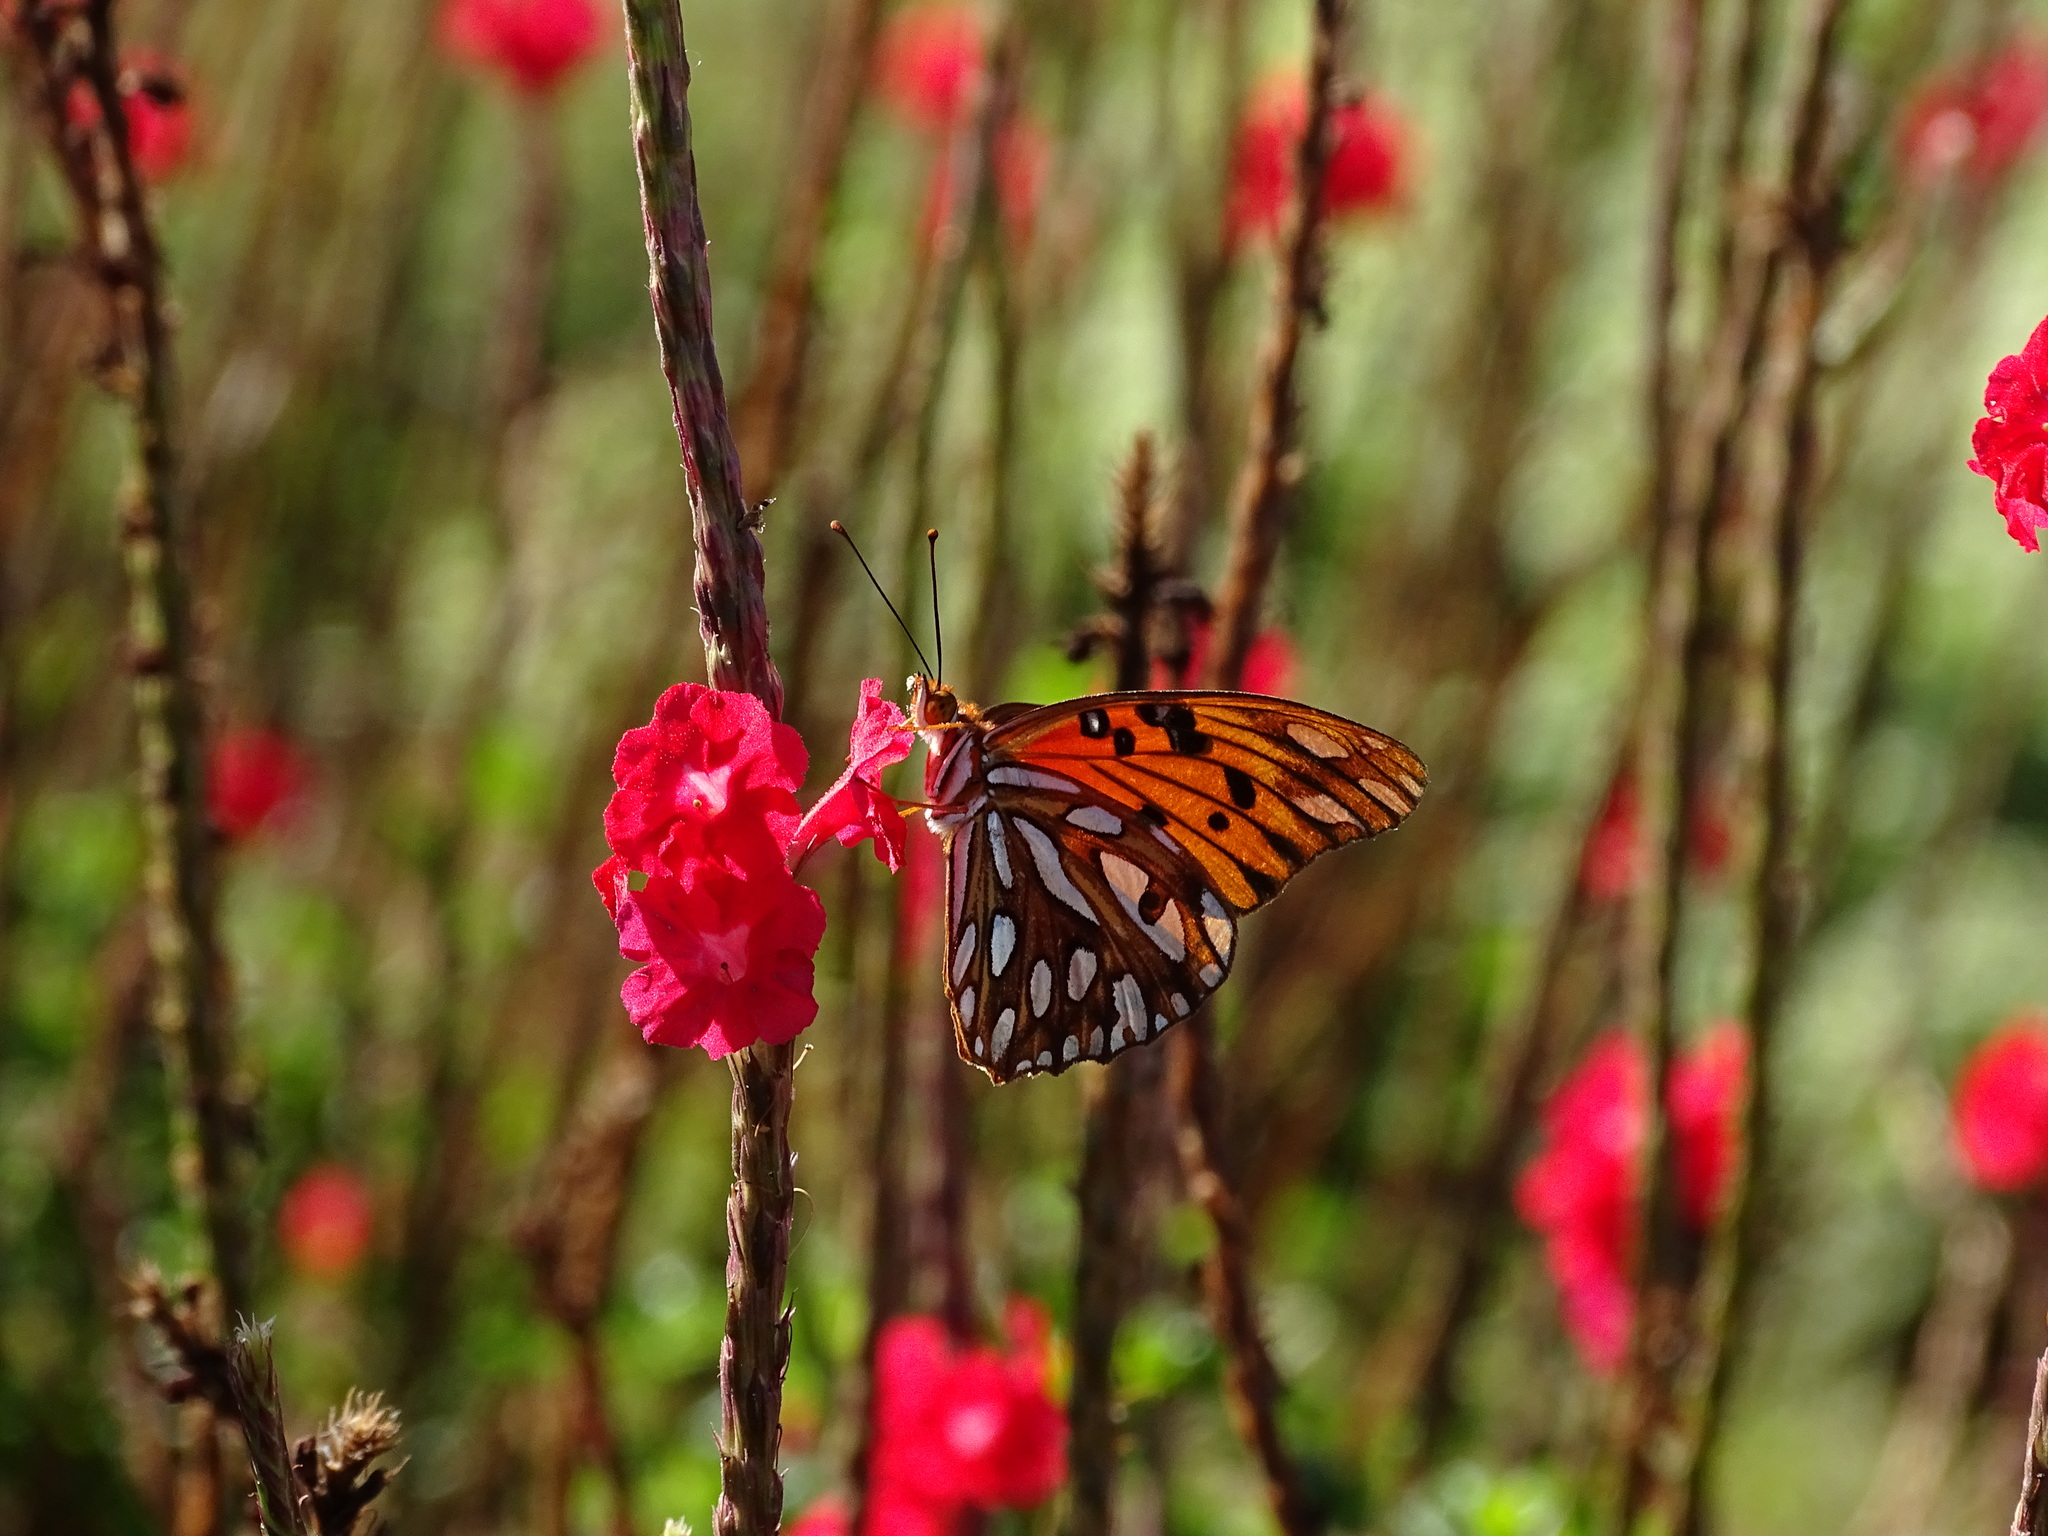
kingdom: Animalia
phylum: Arthropoda
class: Insecta
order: Lepidoptera
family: Nymphalidae
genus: Dione
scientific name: Dione vanillae
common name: Gulf fritillary
